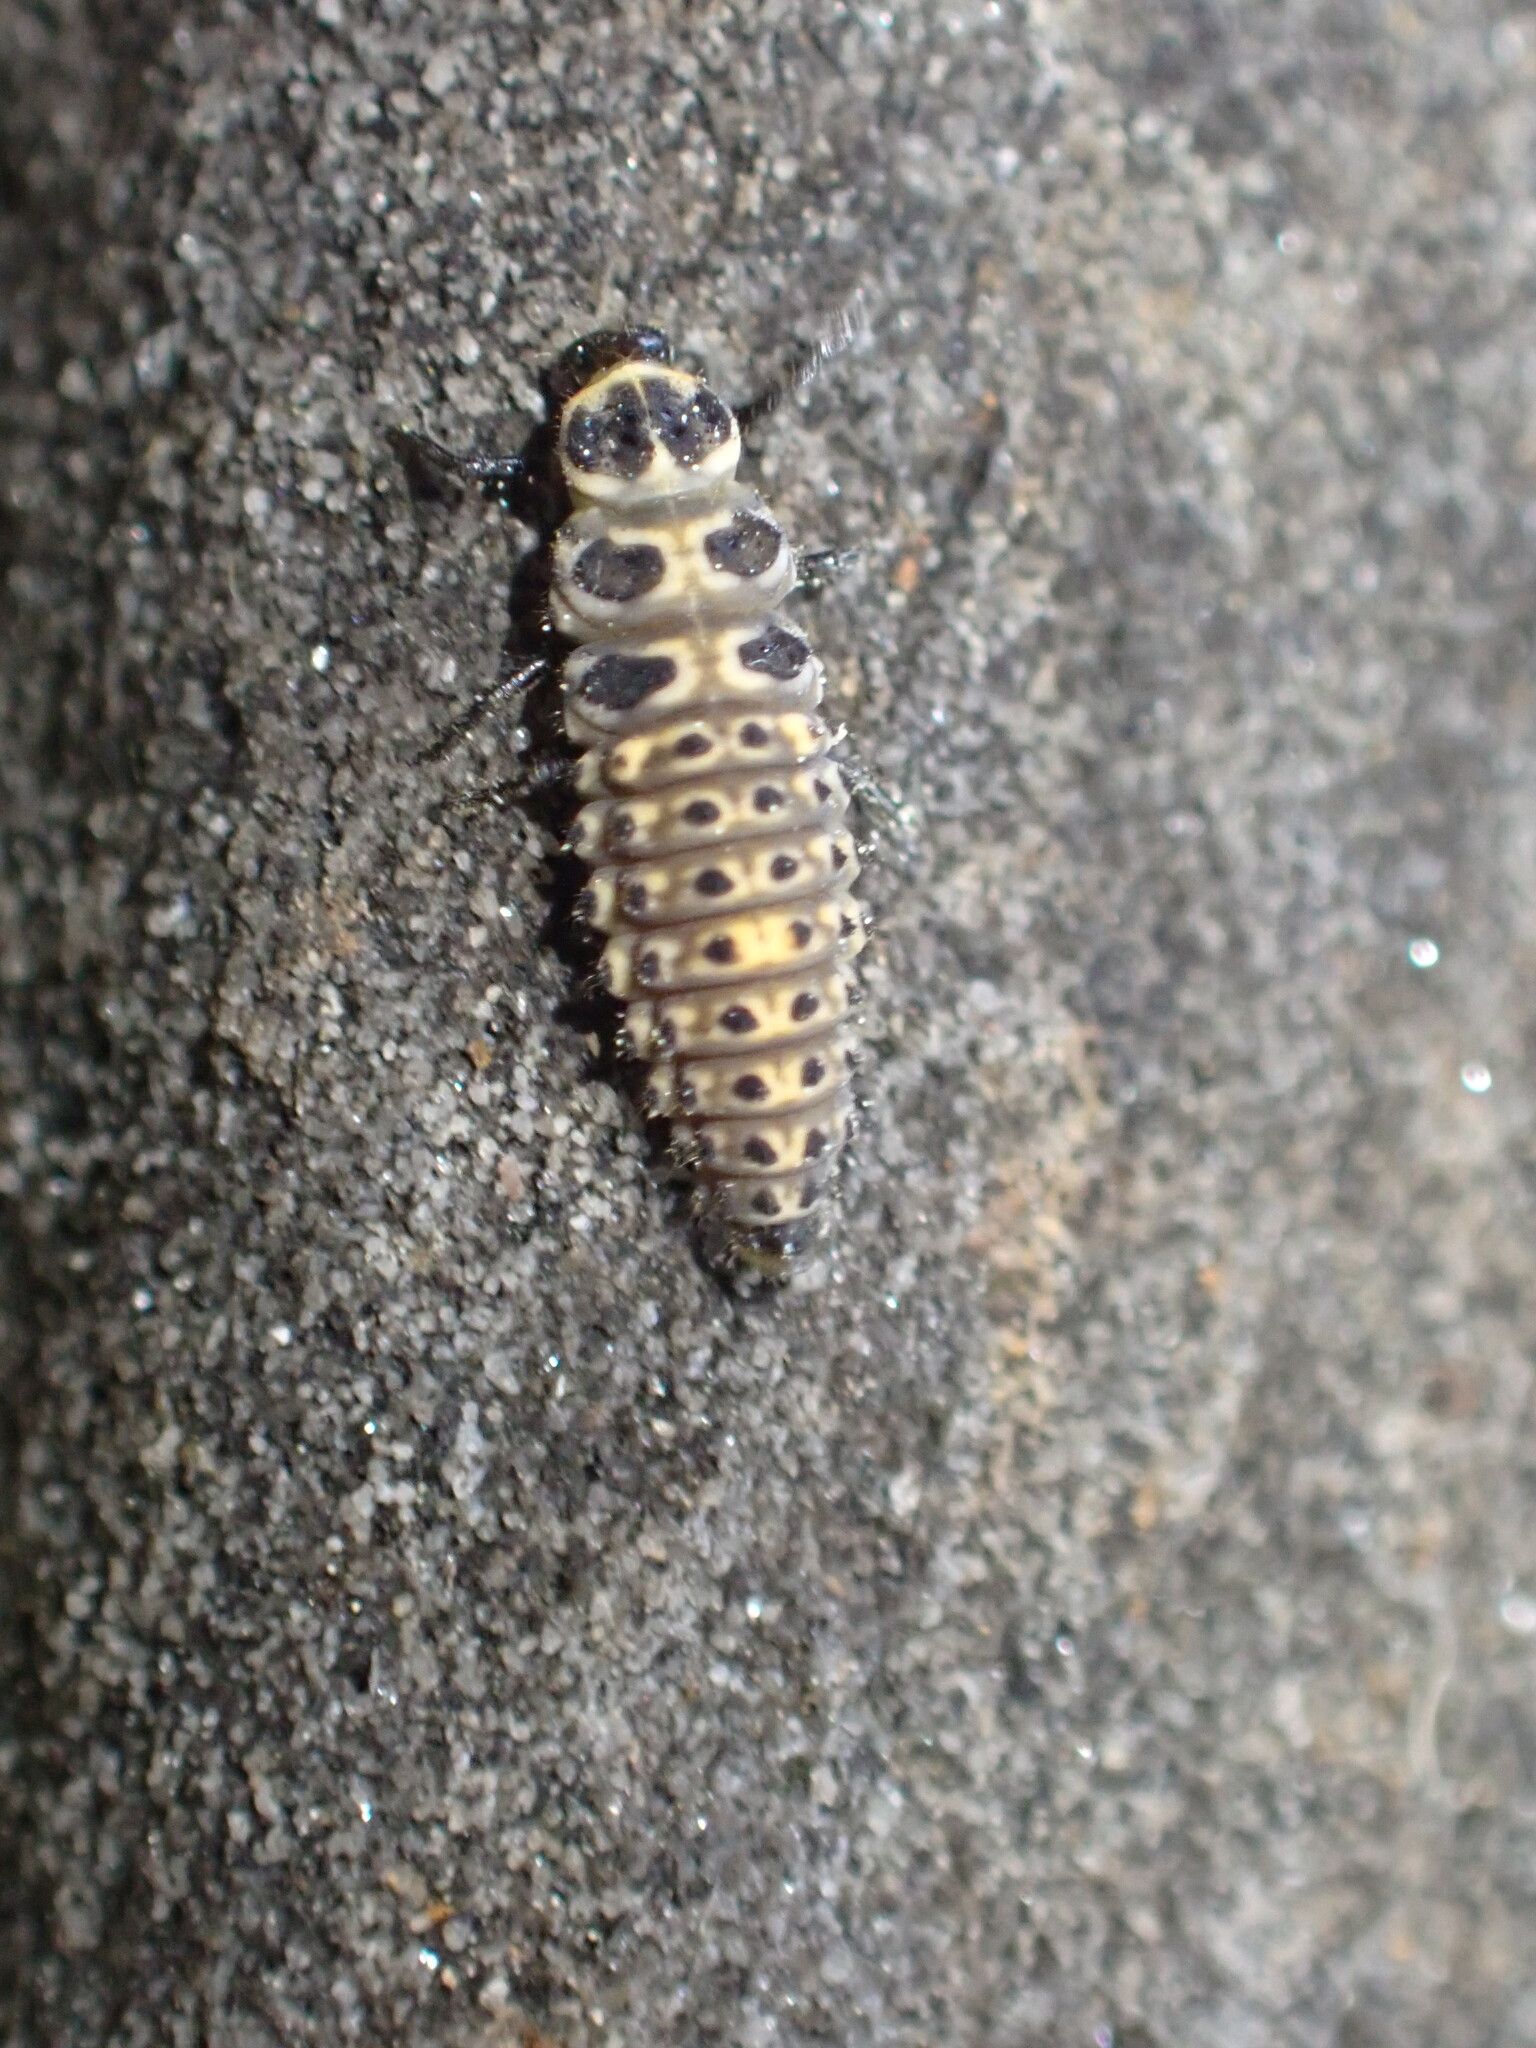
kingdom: Animalia
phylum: Arthropoda
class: Insecta
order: Coleoptera
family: Coccinellidae
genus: Adalia
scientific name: Adalia bipunctata
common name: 2-spot ladybird
